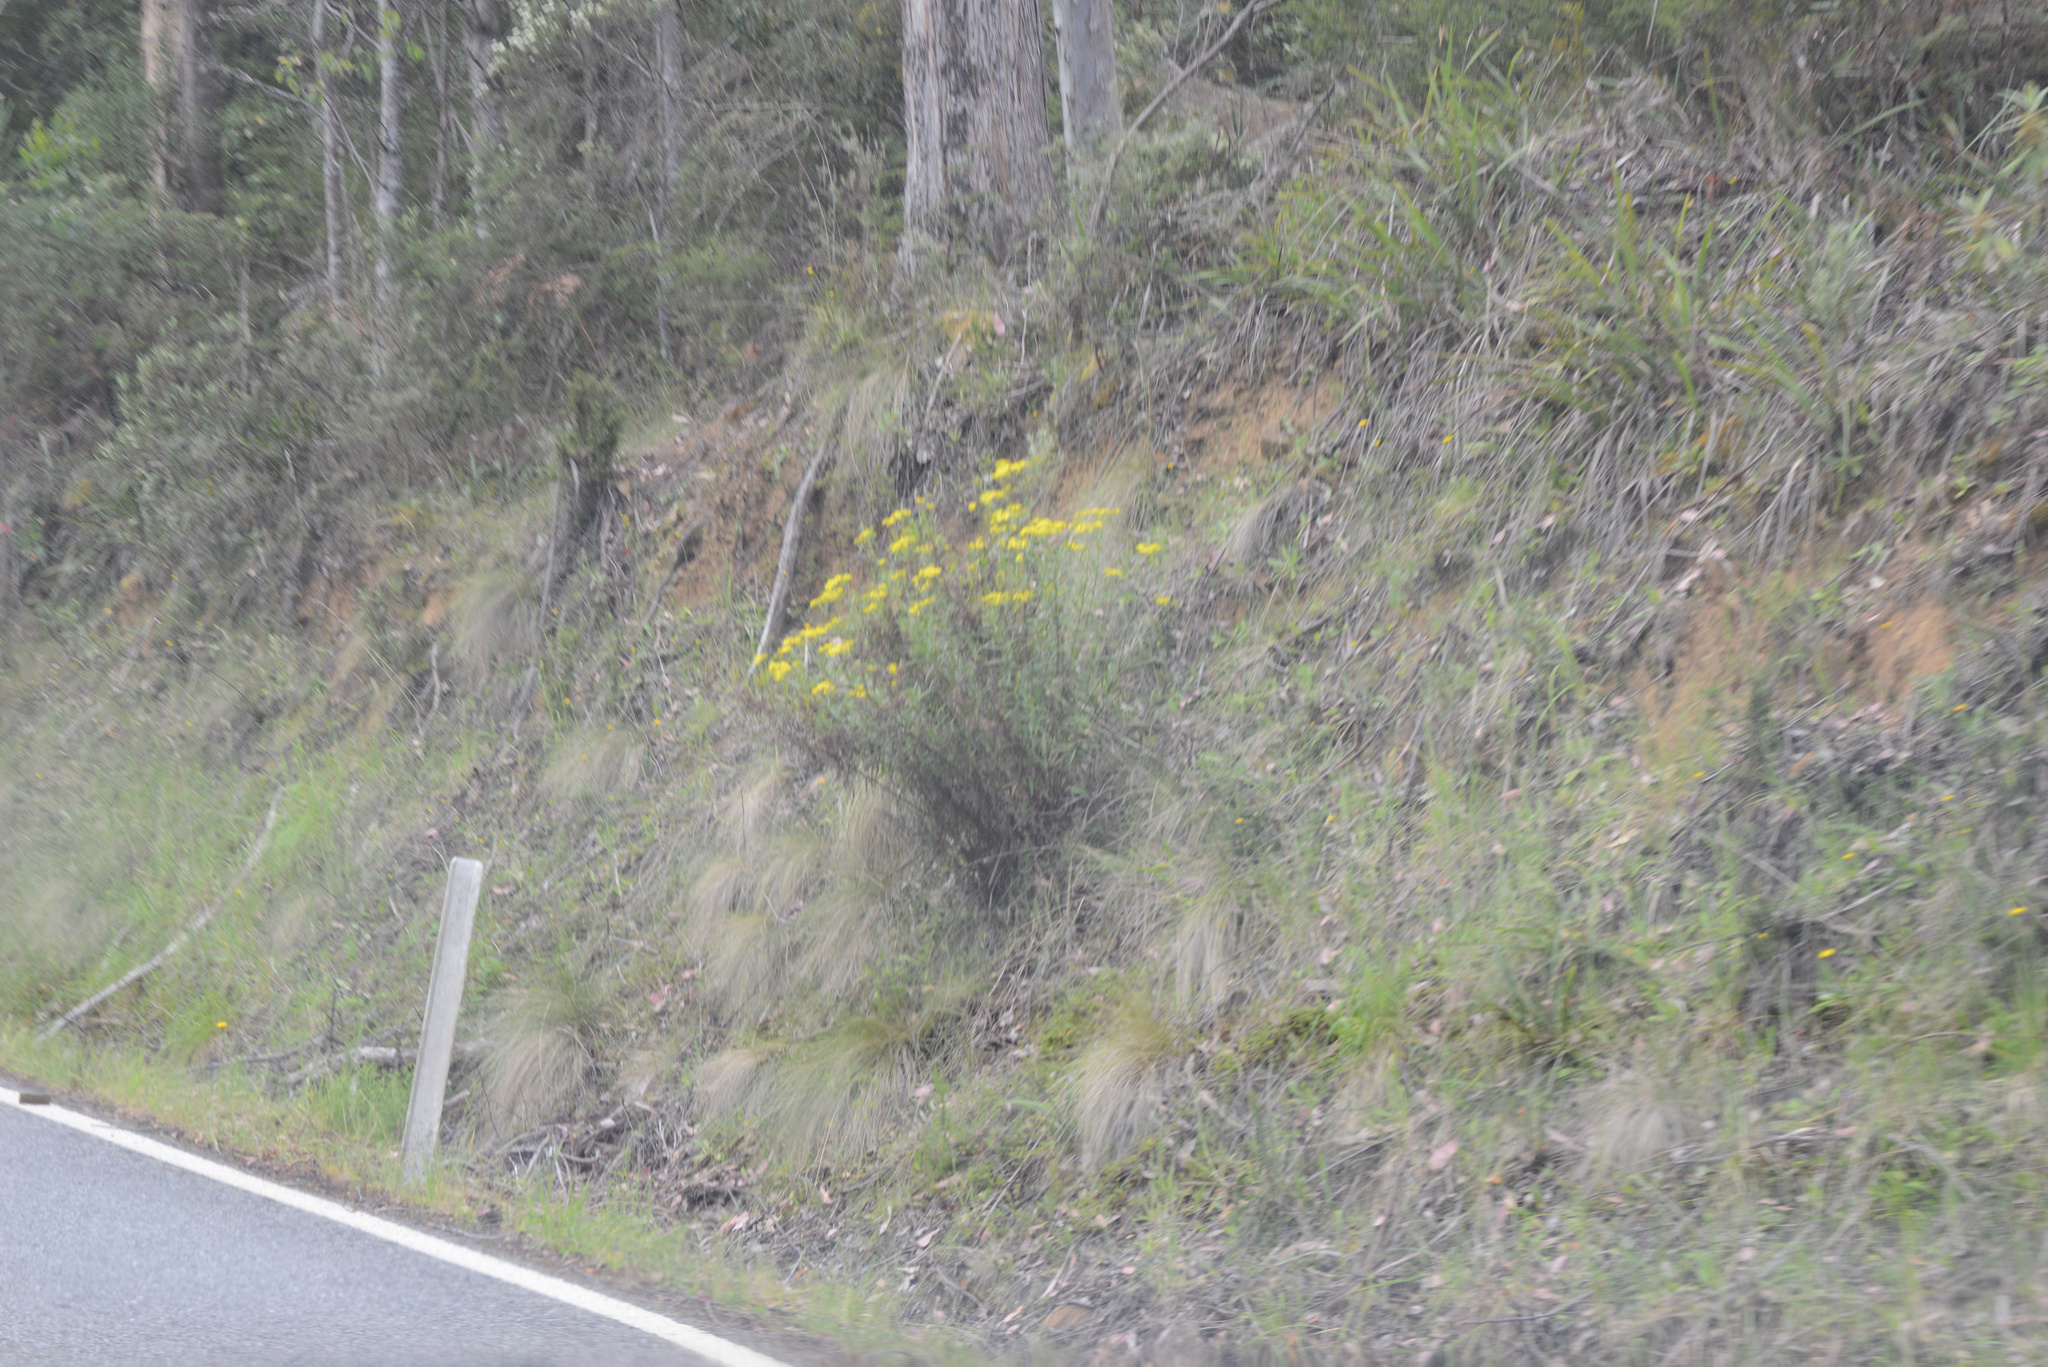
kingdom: Plantae
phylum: Tracheophyta
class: Magnoliopsida
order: Asterales
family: Asteraceae
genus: Senecio
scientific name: Senecio linearifolius
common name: Fireweed groundsel
